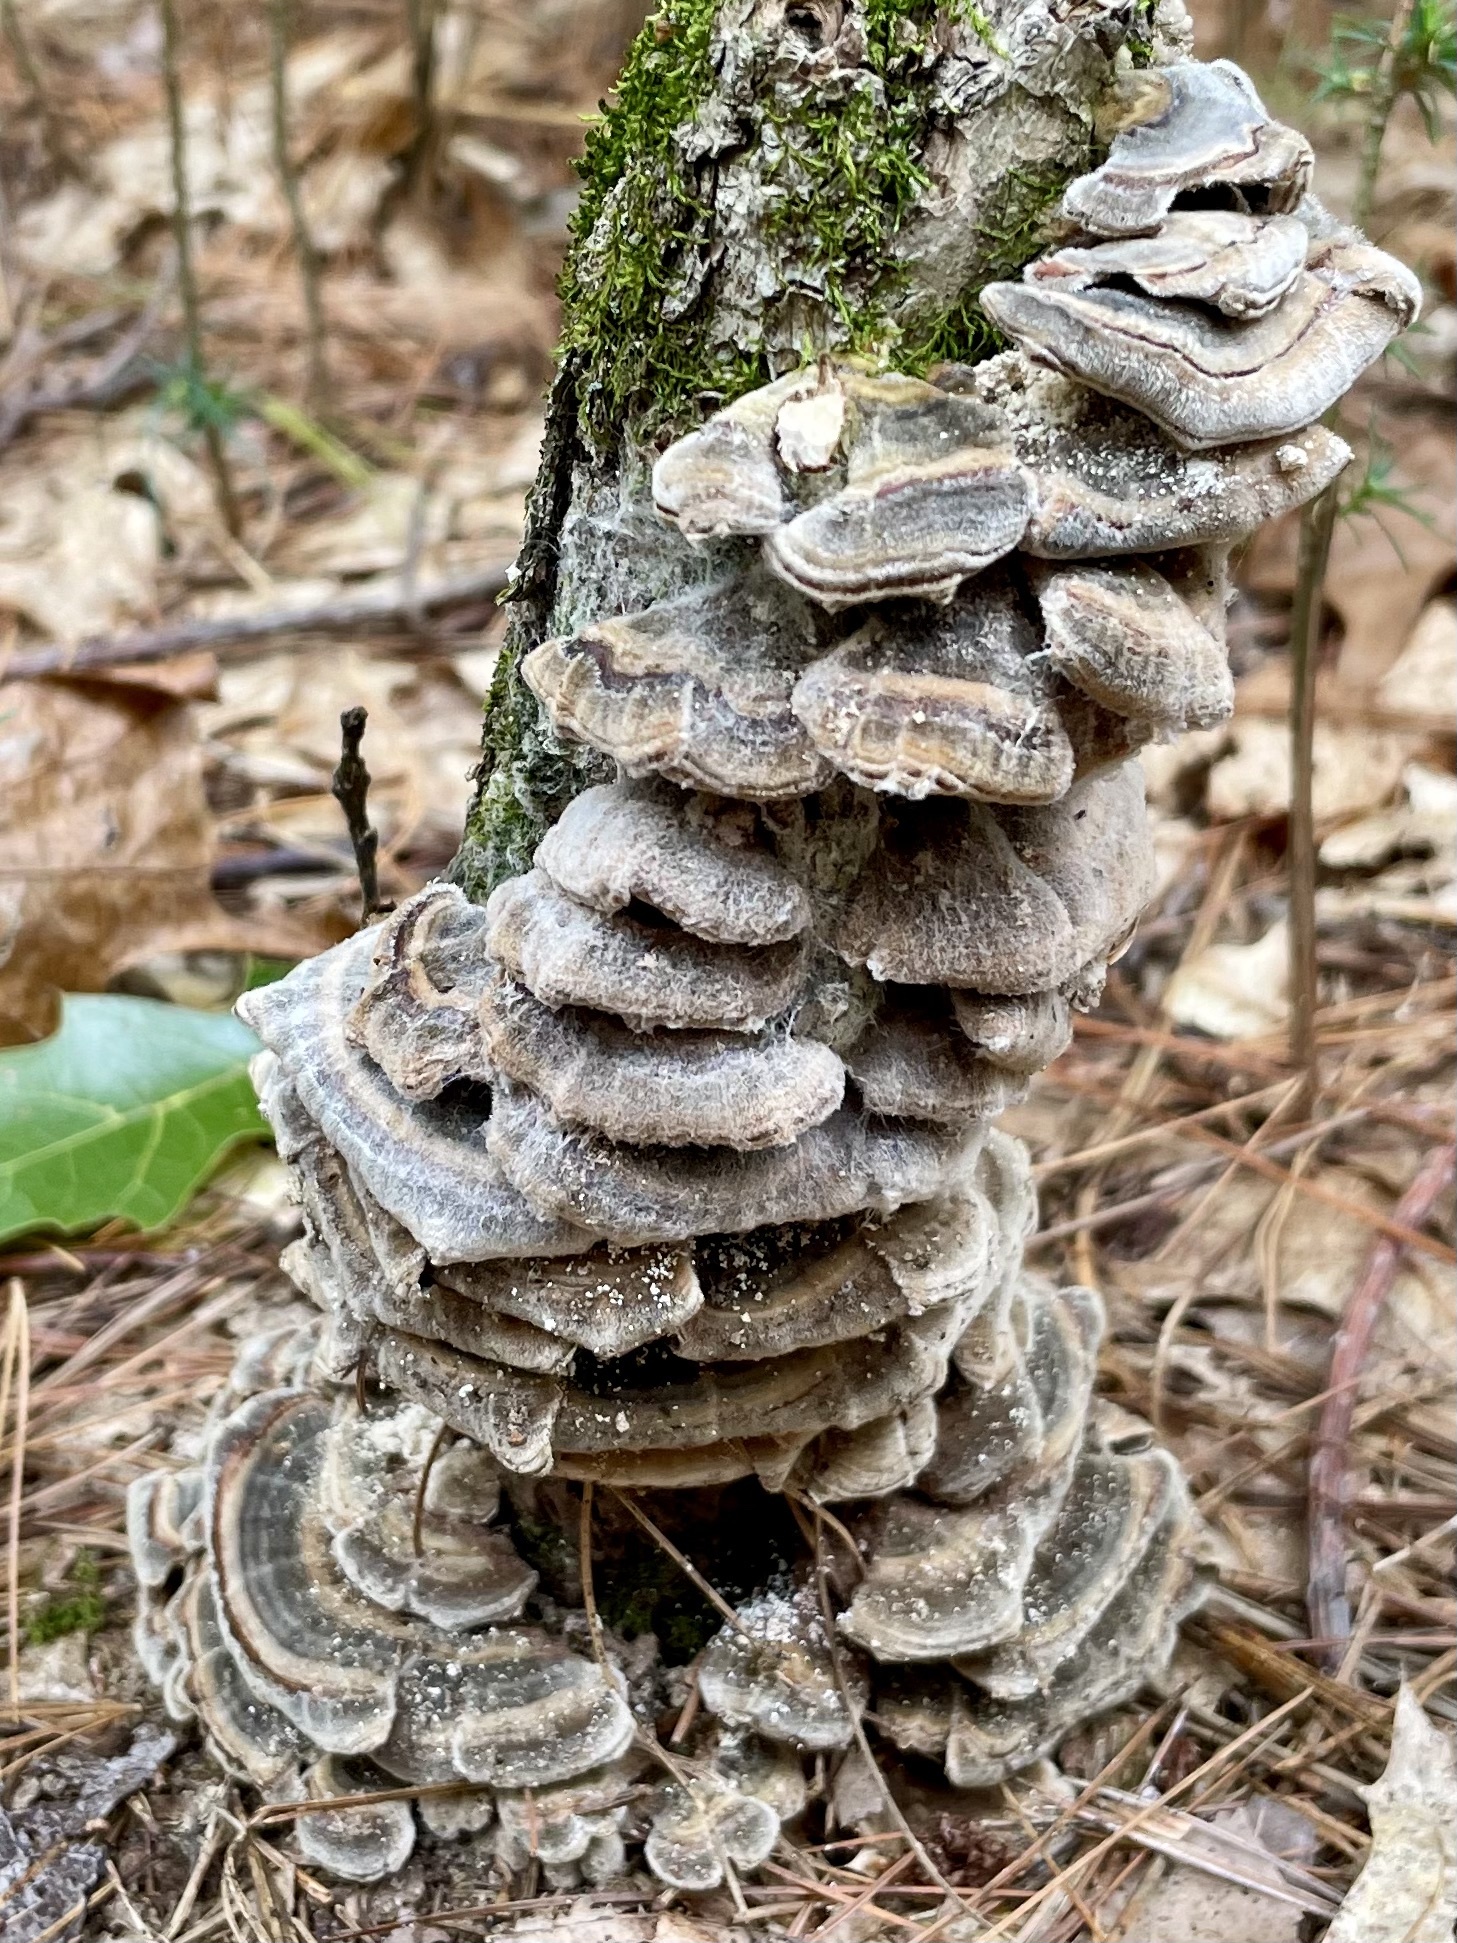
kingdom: Fungi
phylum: Basidiomycota
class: Agaricomycetes
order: Polyporales
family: Polyporaceae
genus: Trametes
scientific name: Trametes versicolor
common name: Turkeytail
